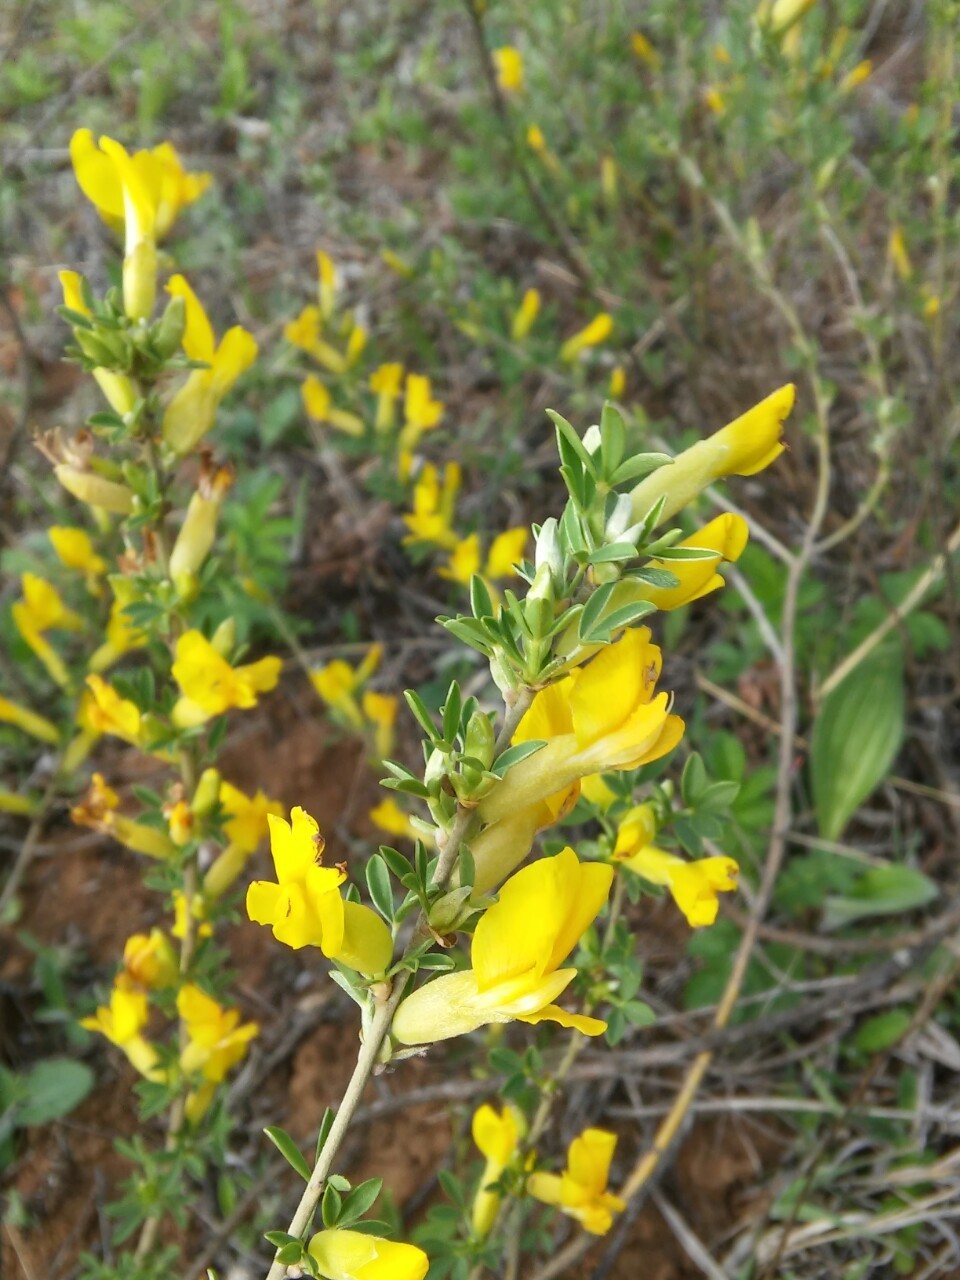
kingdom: Plantae
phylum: Tracheophyta
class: Magnoliopsida
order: Fabales
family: Fabaceae
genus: Chamaecytisus
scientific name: Chamaecytisus ruthenicus
